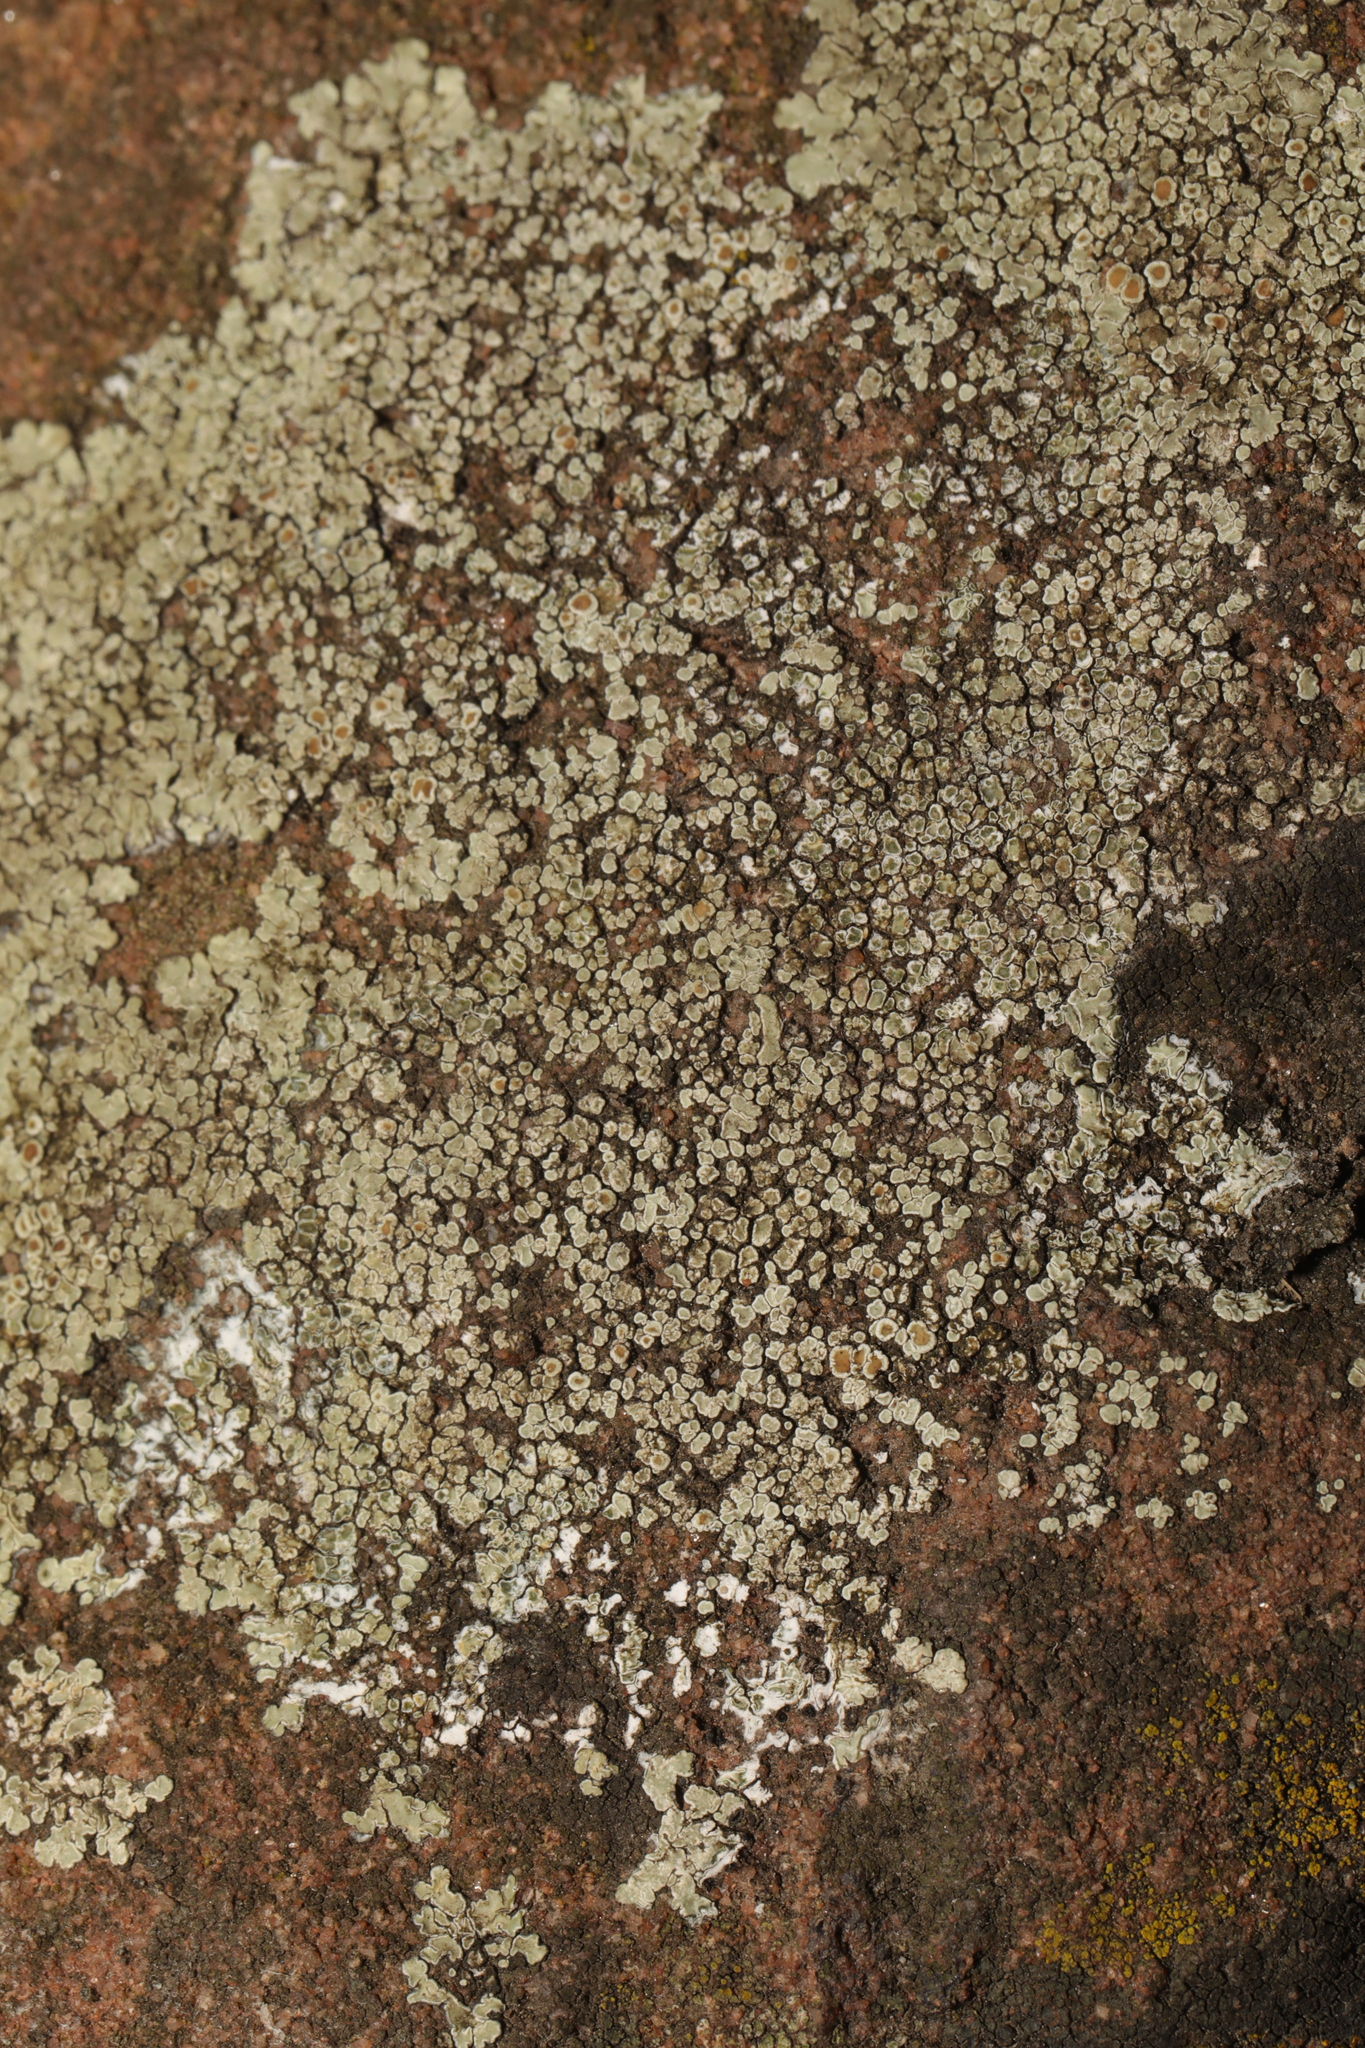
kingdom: Fungi
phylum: Ascomycota
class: Lecanoromycetes
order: Lecanorales
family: Lecanoraceae
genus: Protoparmeliopsis
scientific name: Protoparmeliopsis muralis
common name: Stonewall rim lichen
